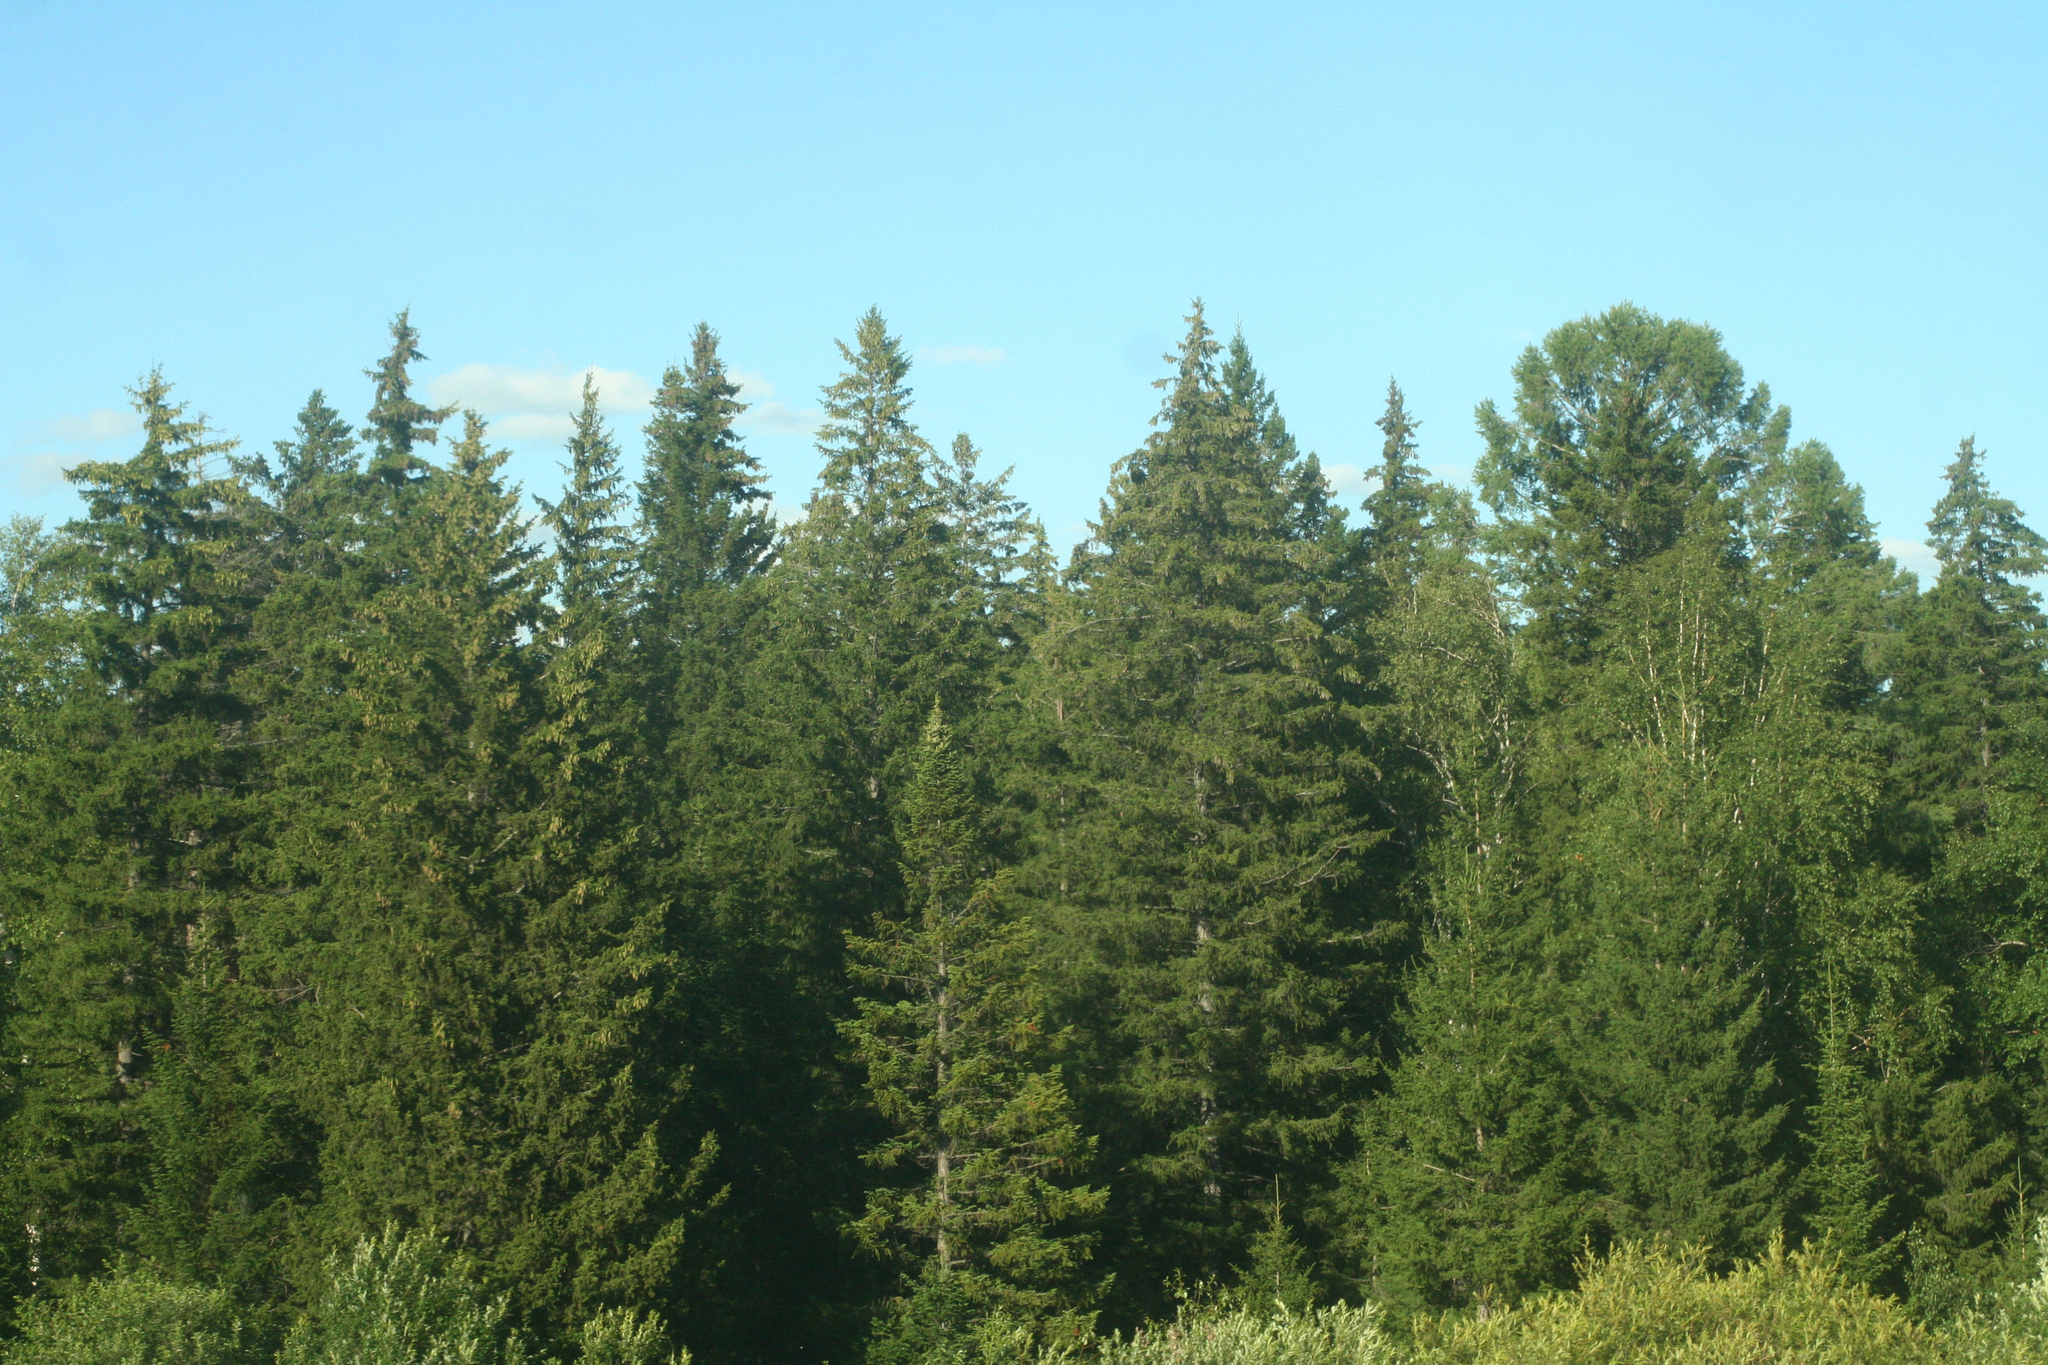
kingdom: Plantae
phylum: Tracheophyta
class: Pinopsida
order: Pinales
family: Pinaceae
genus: Picea
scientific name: Picea obovata
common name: Siberian spruce
